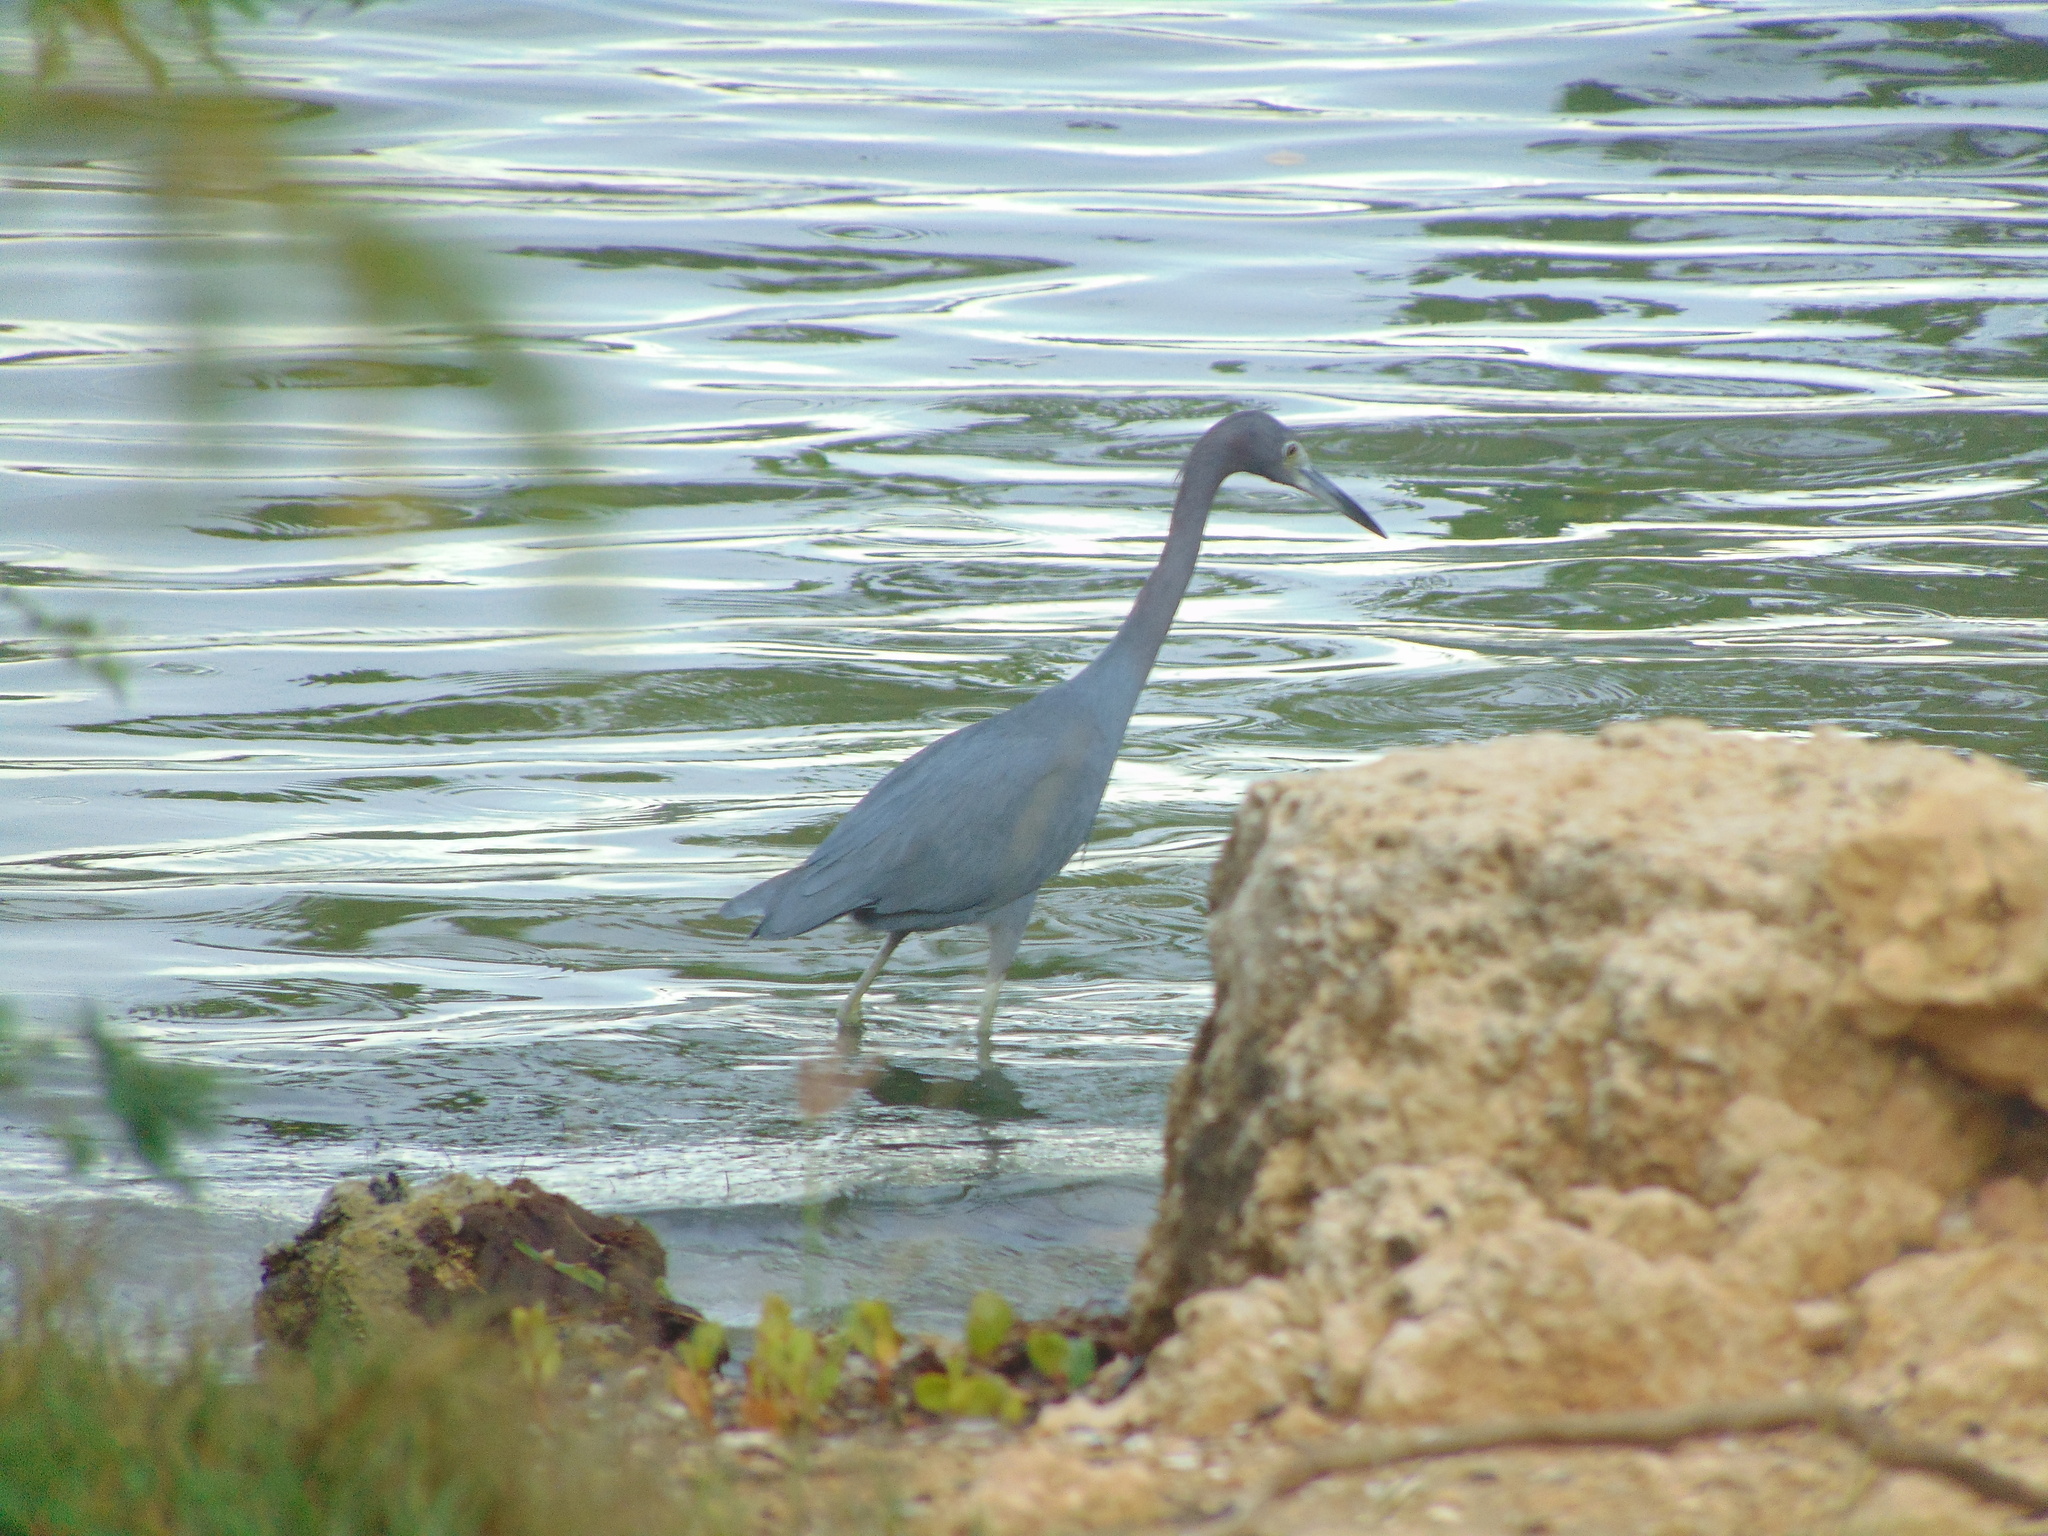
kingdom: Animalia
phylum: Chordata
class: Aves
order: Pelecaniformes
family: Ardeidae
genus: Egretta
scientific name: Egretta caerulea
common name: Little blue heron
